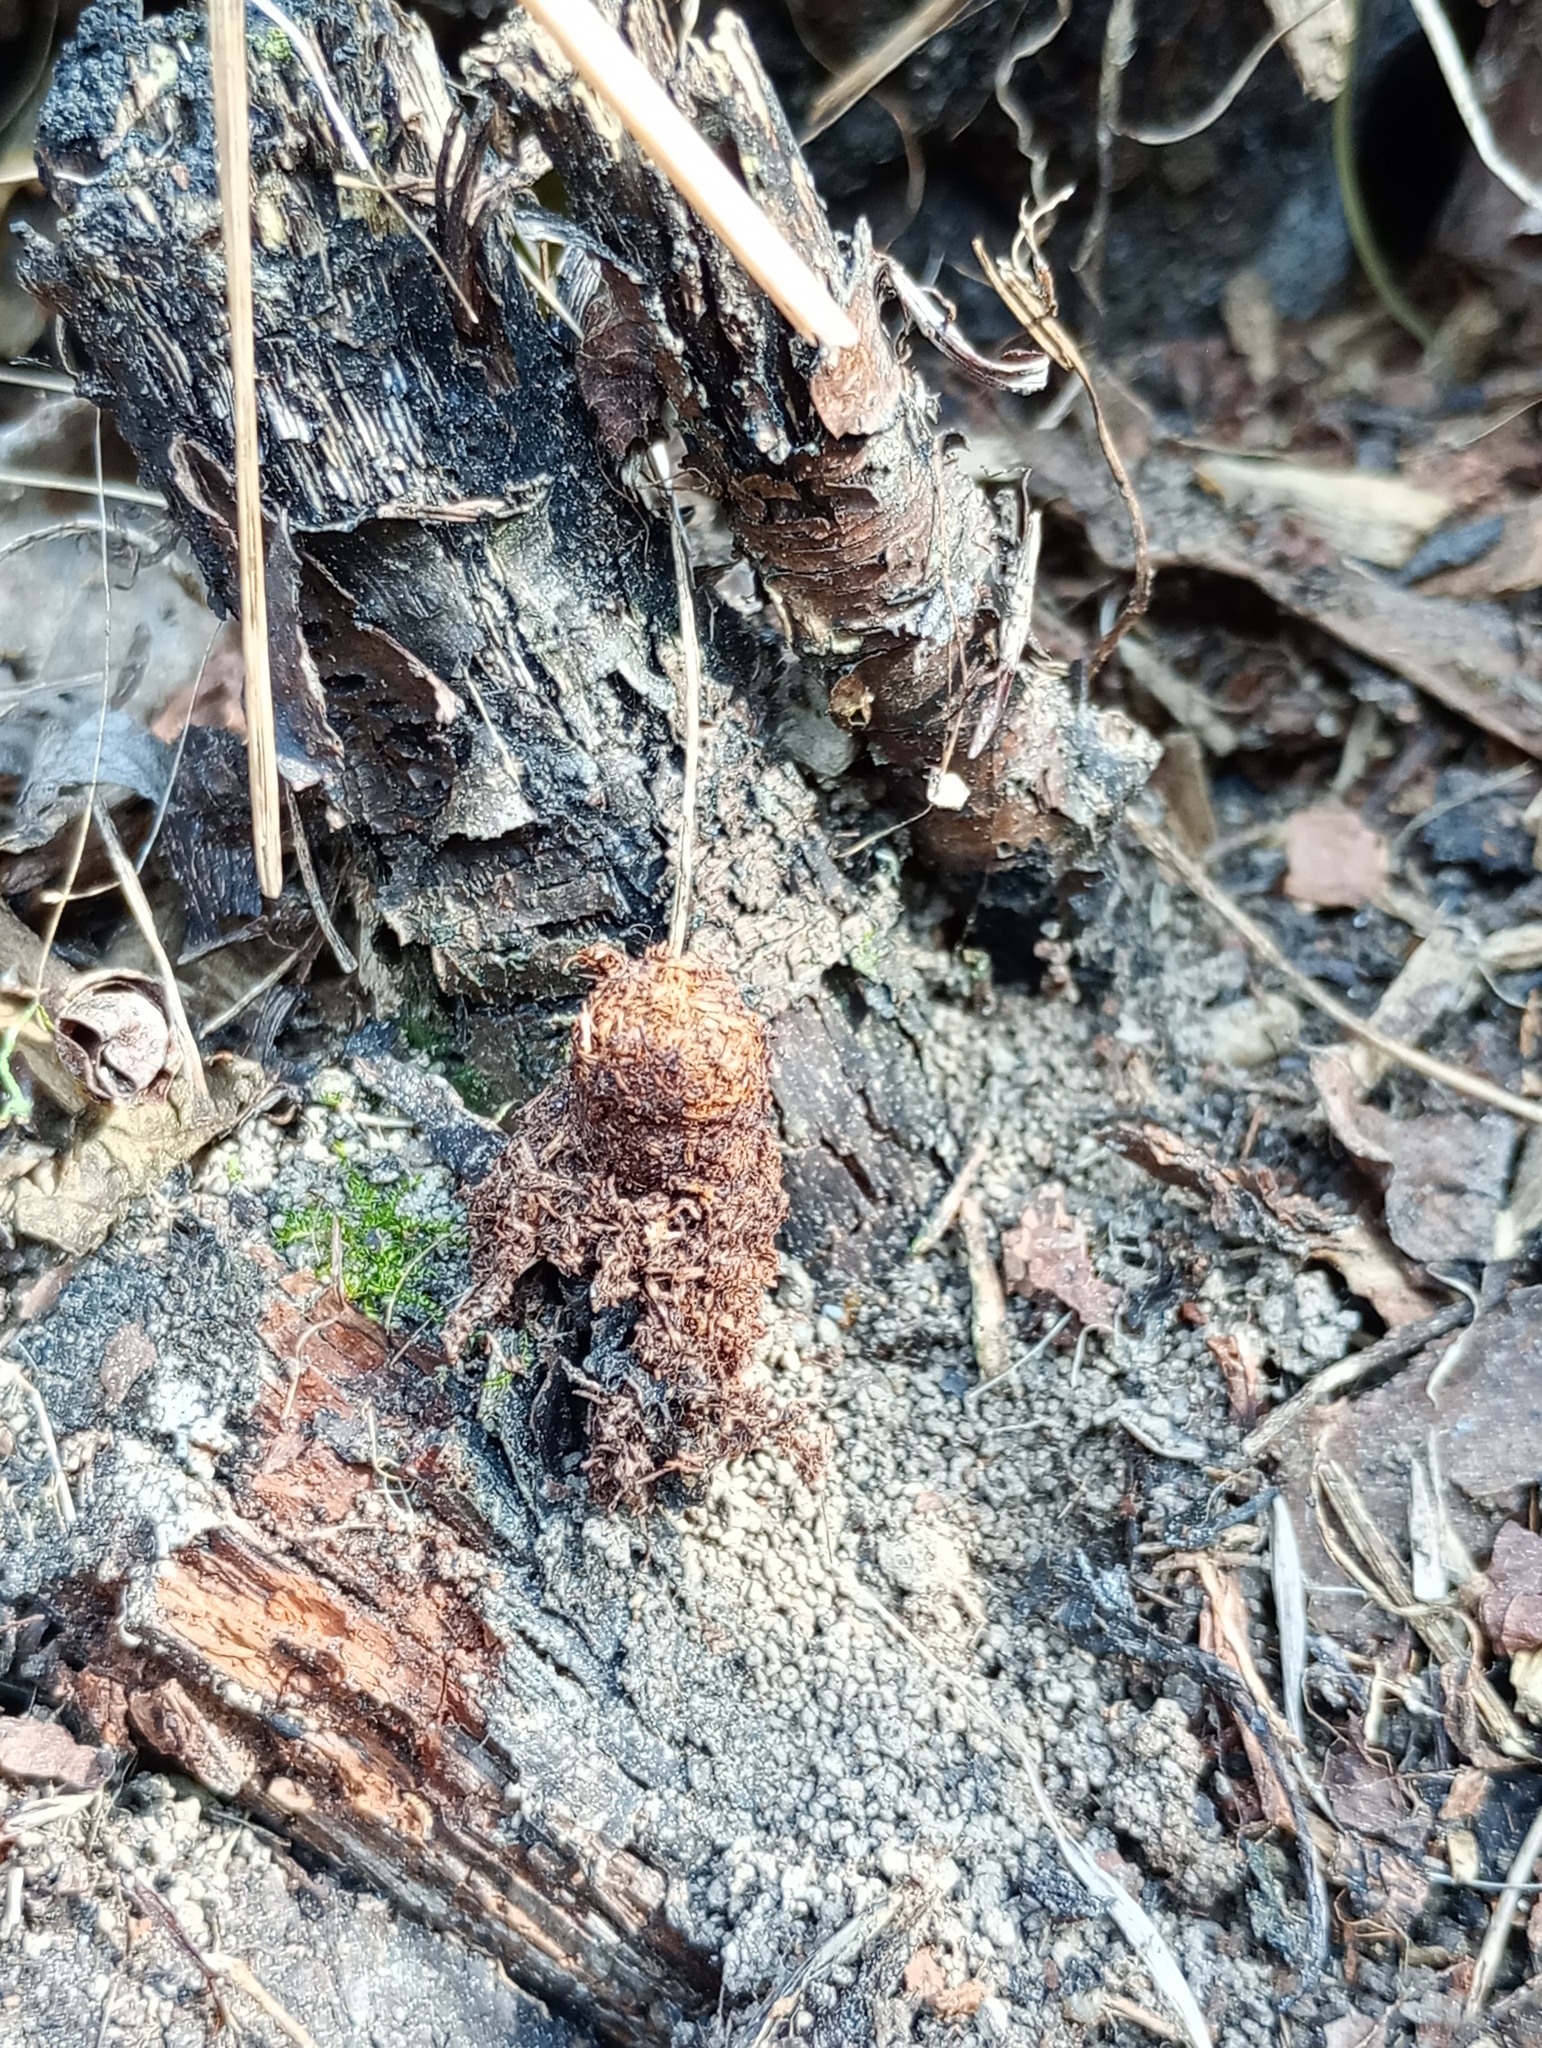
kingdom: Animalia
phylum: Arthropoda
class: Insecta
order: Lepidoptera
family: Sesiidae
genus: Synanthedon
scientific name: Synanthedon stomoxiformis
